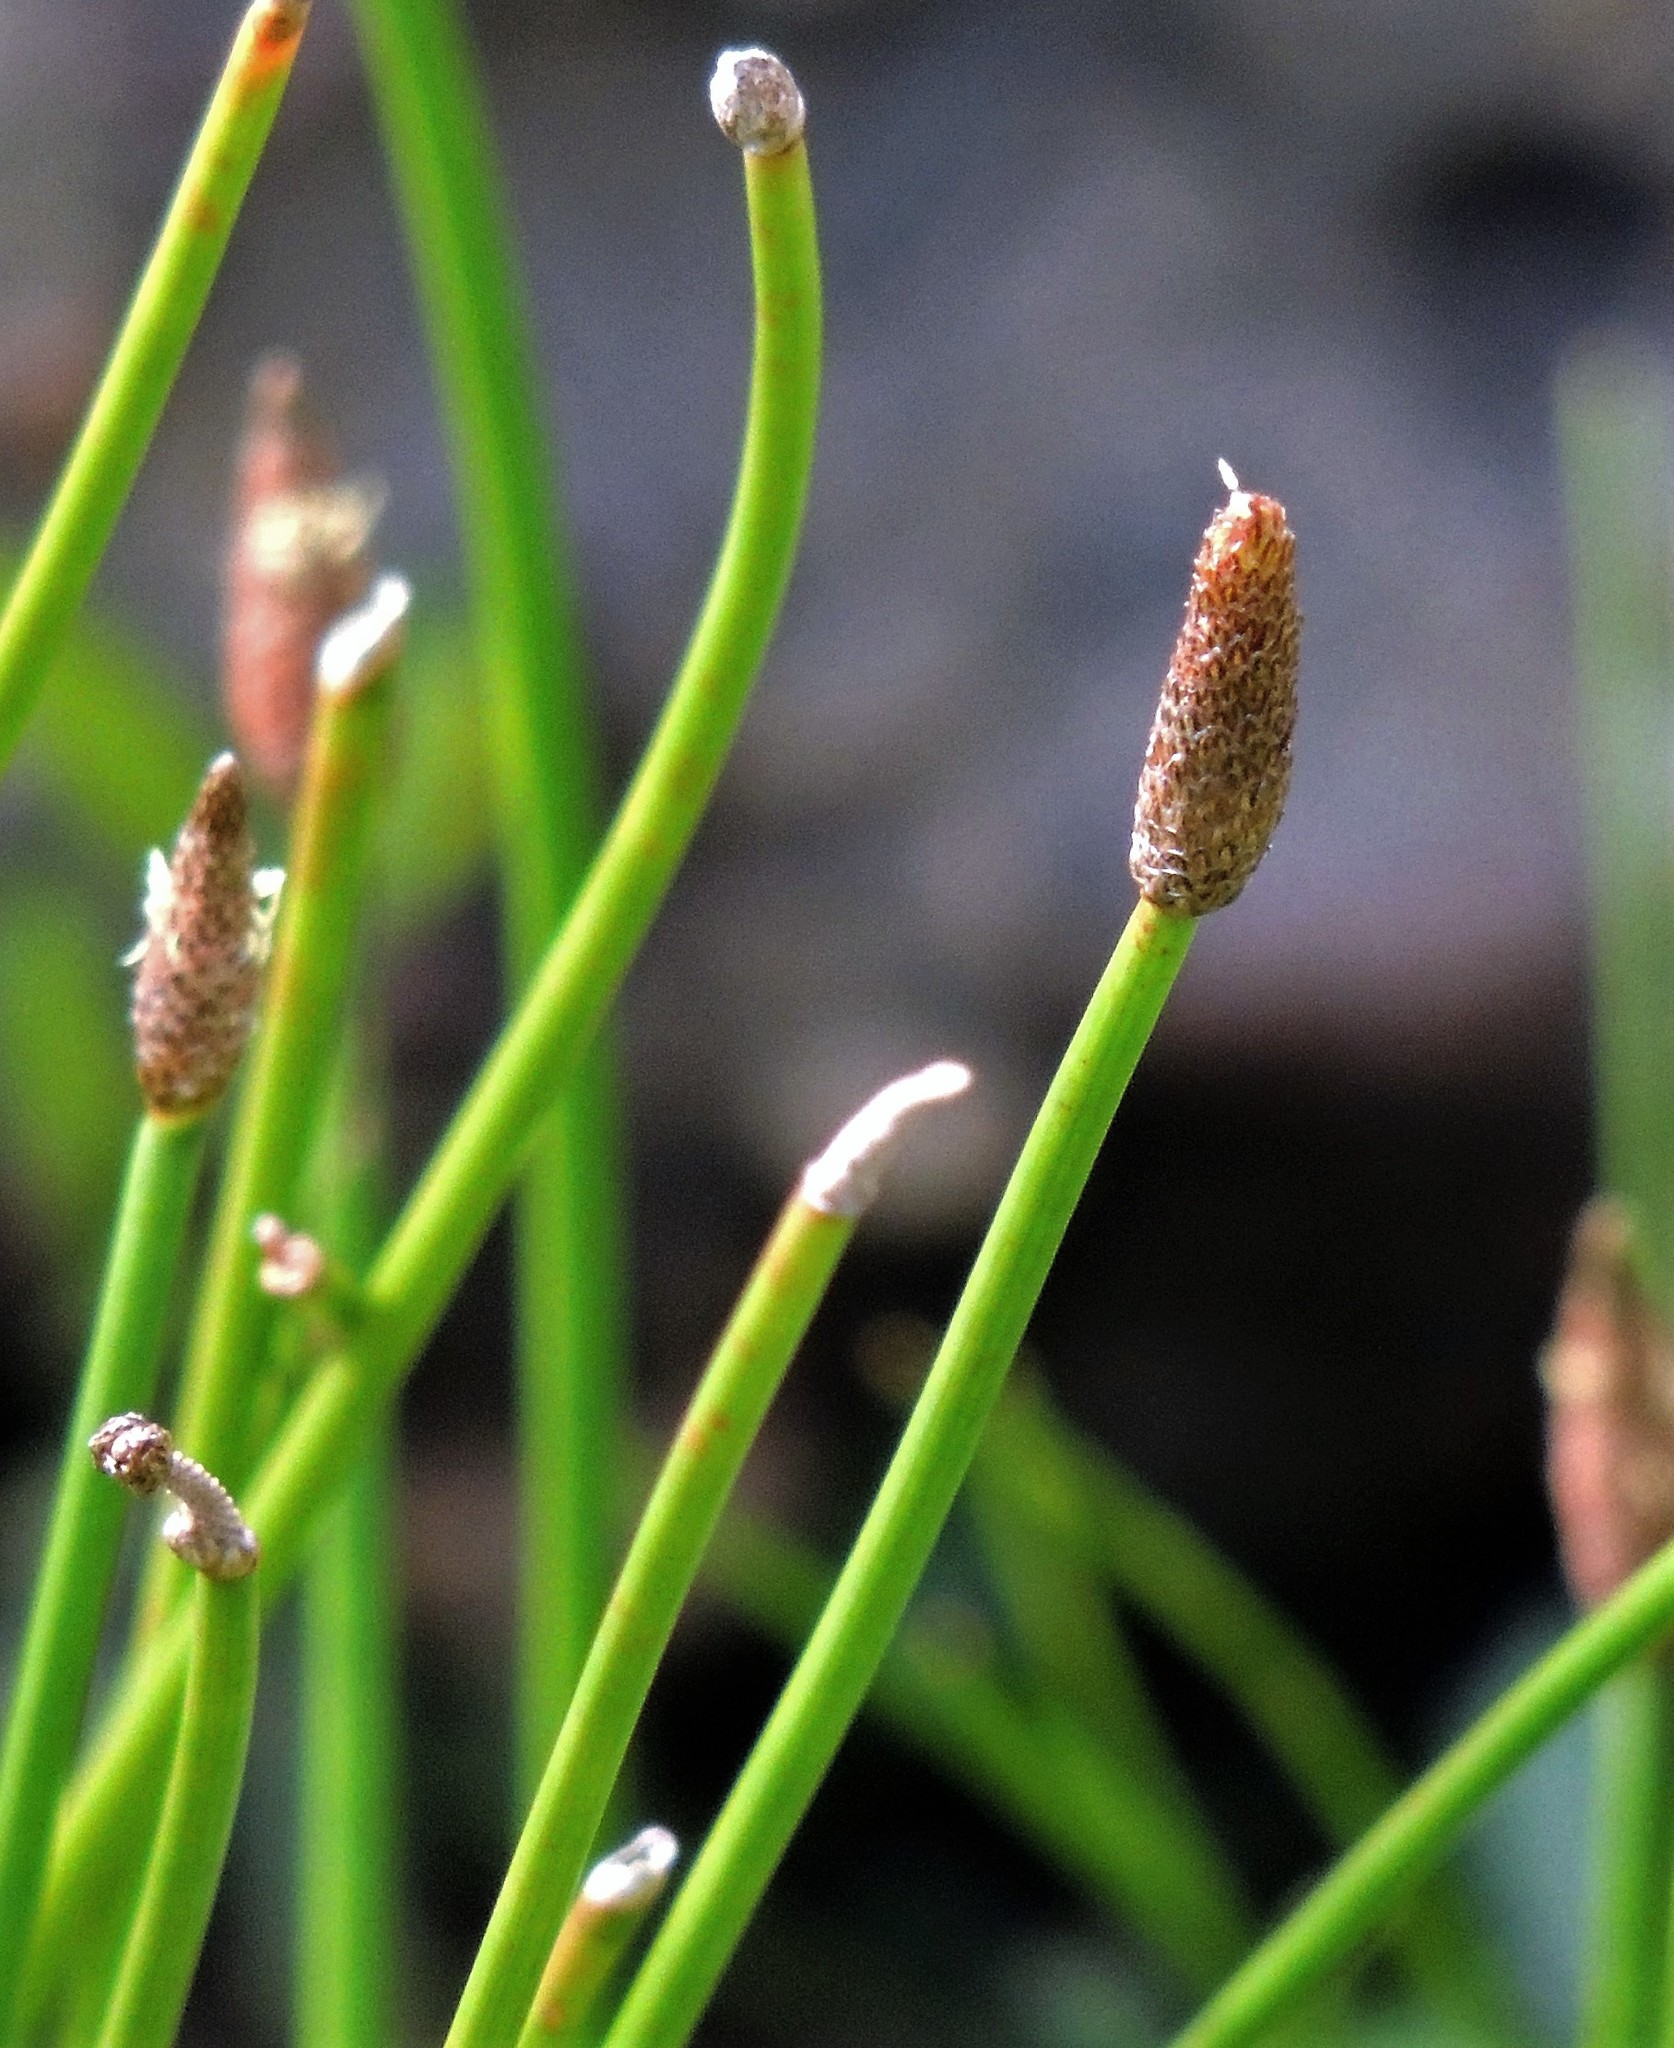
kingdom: Plantae
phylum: Tracheophyta
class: Liliopsida
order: Poales
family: Cyperaceae
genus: Eleocharis
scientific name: Eleocharis elegans
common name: Elegant spike-rush
